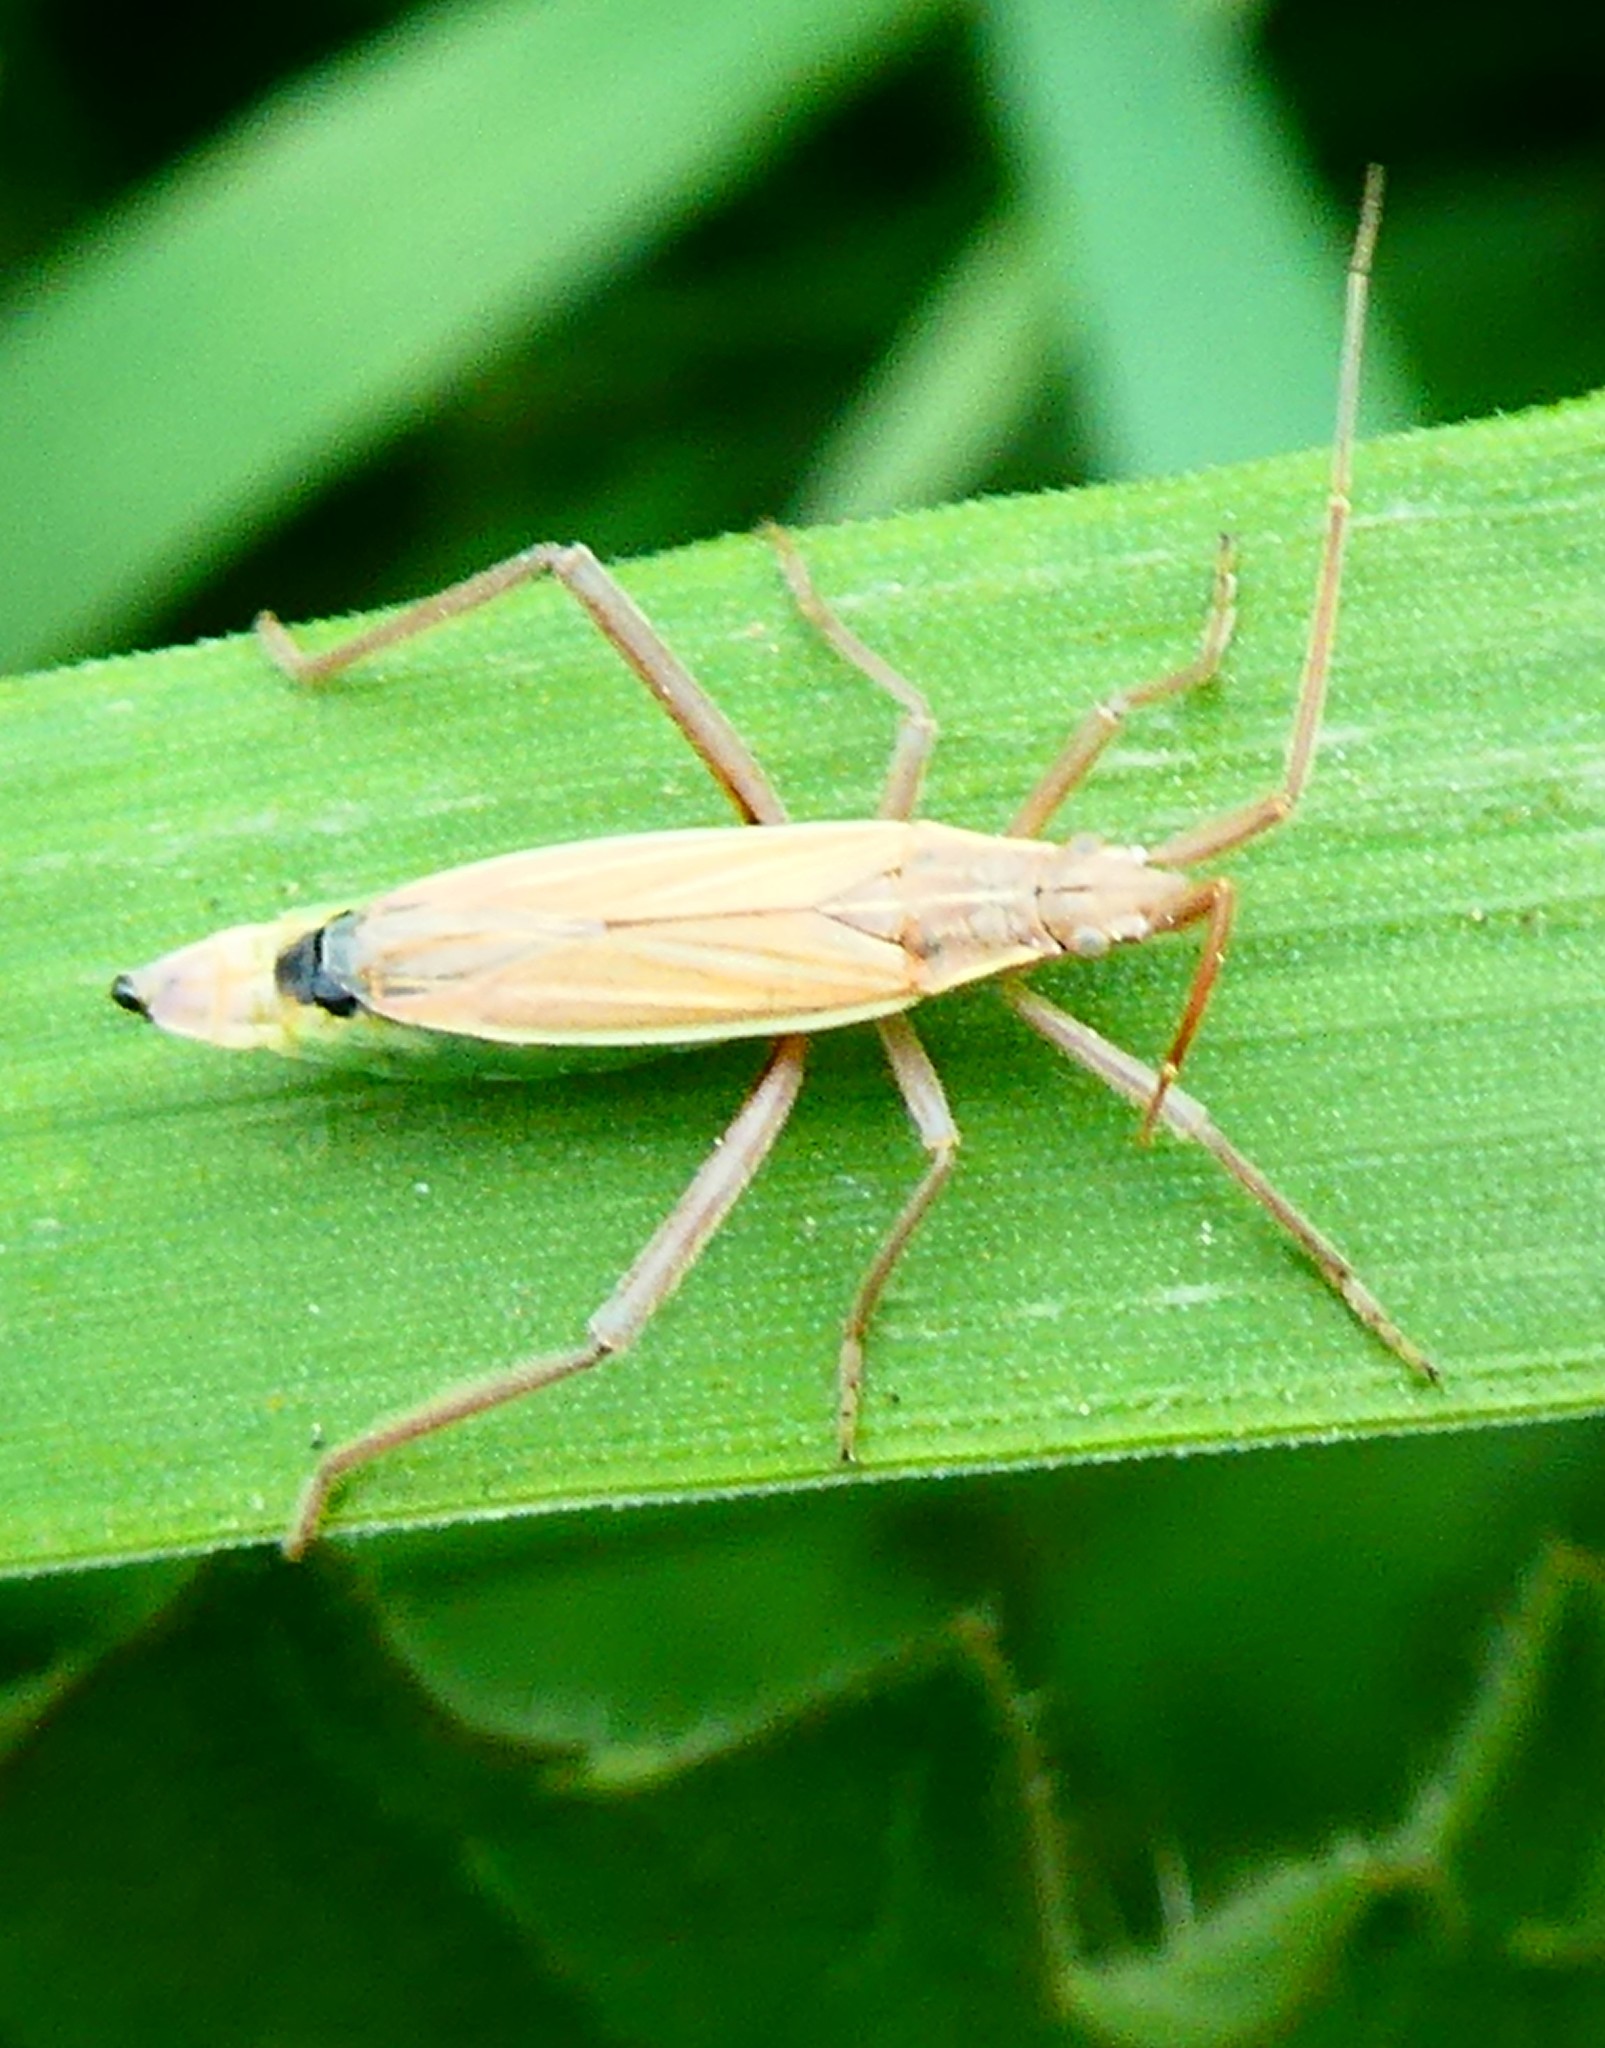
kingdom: Animalia
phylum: Arthropoda
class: Insecta
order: Hemiptera
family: Miridae
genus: Notostira
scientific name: Notostira elongata
